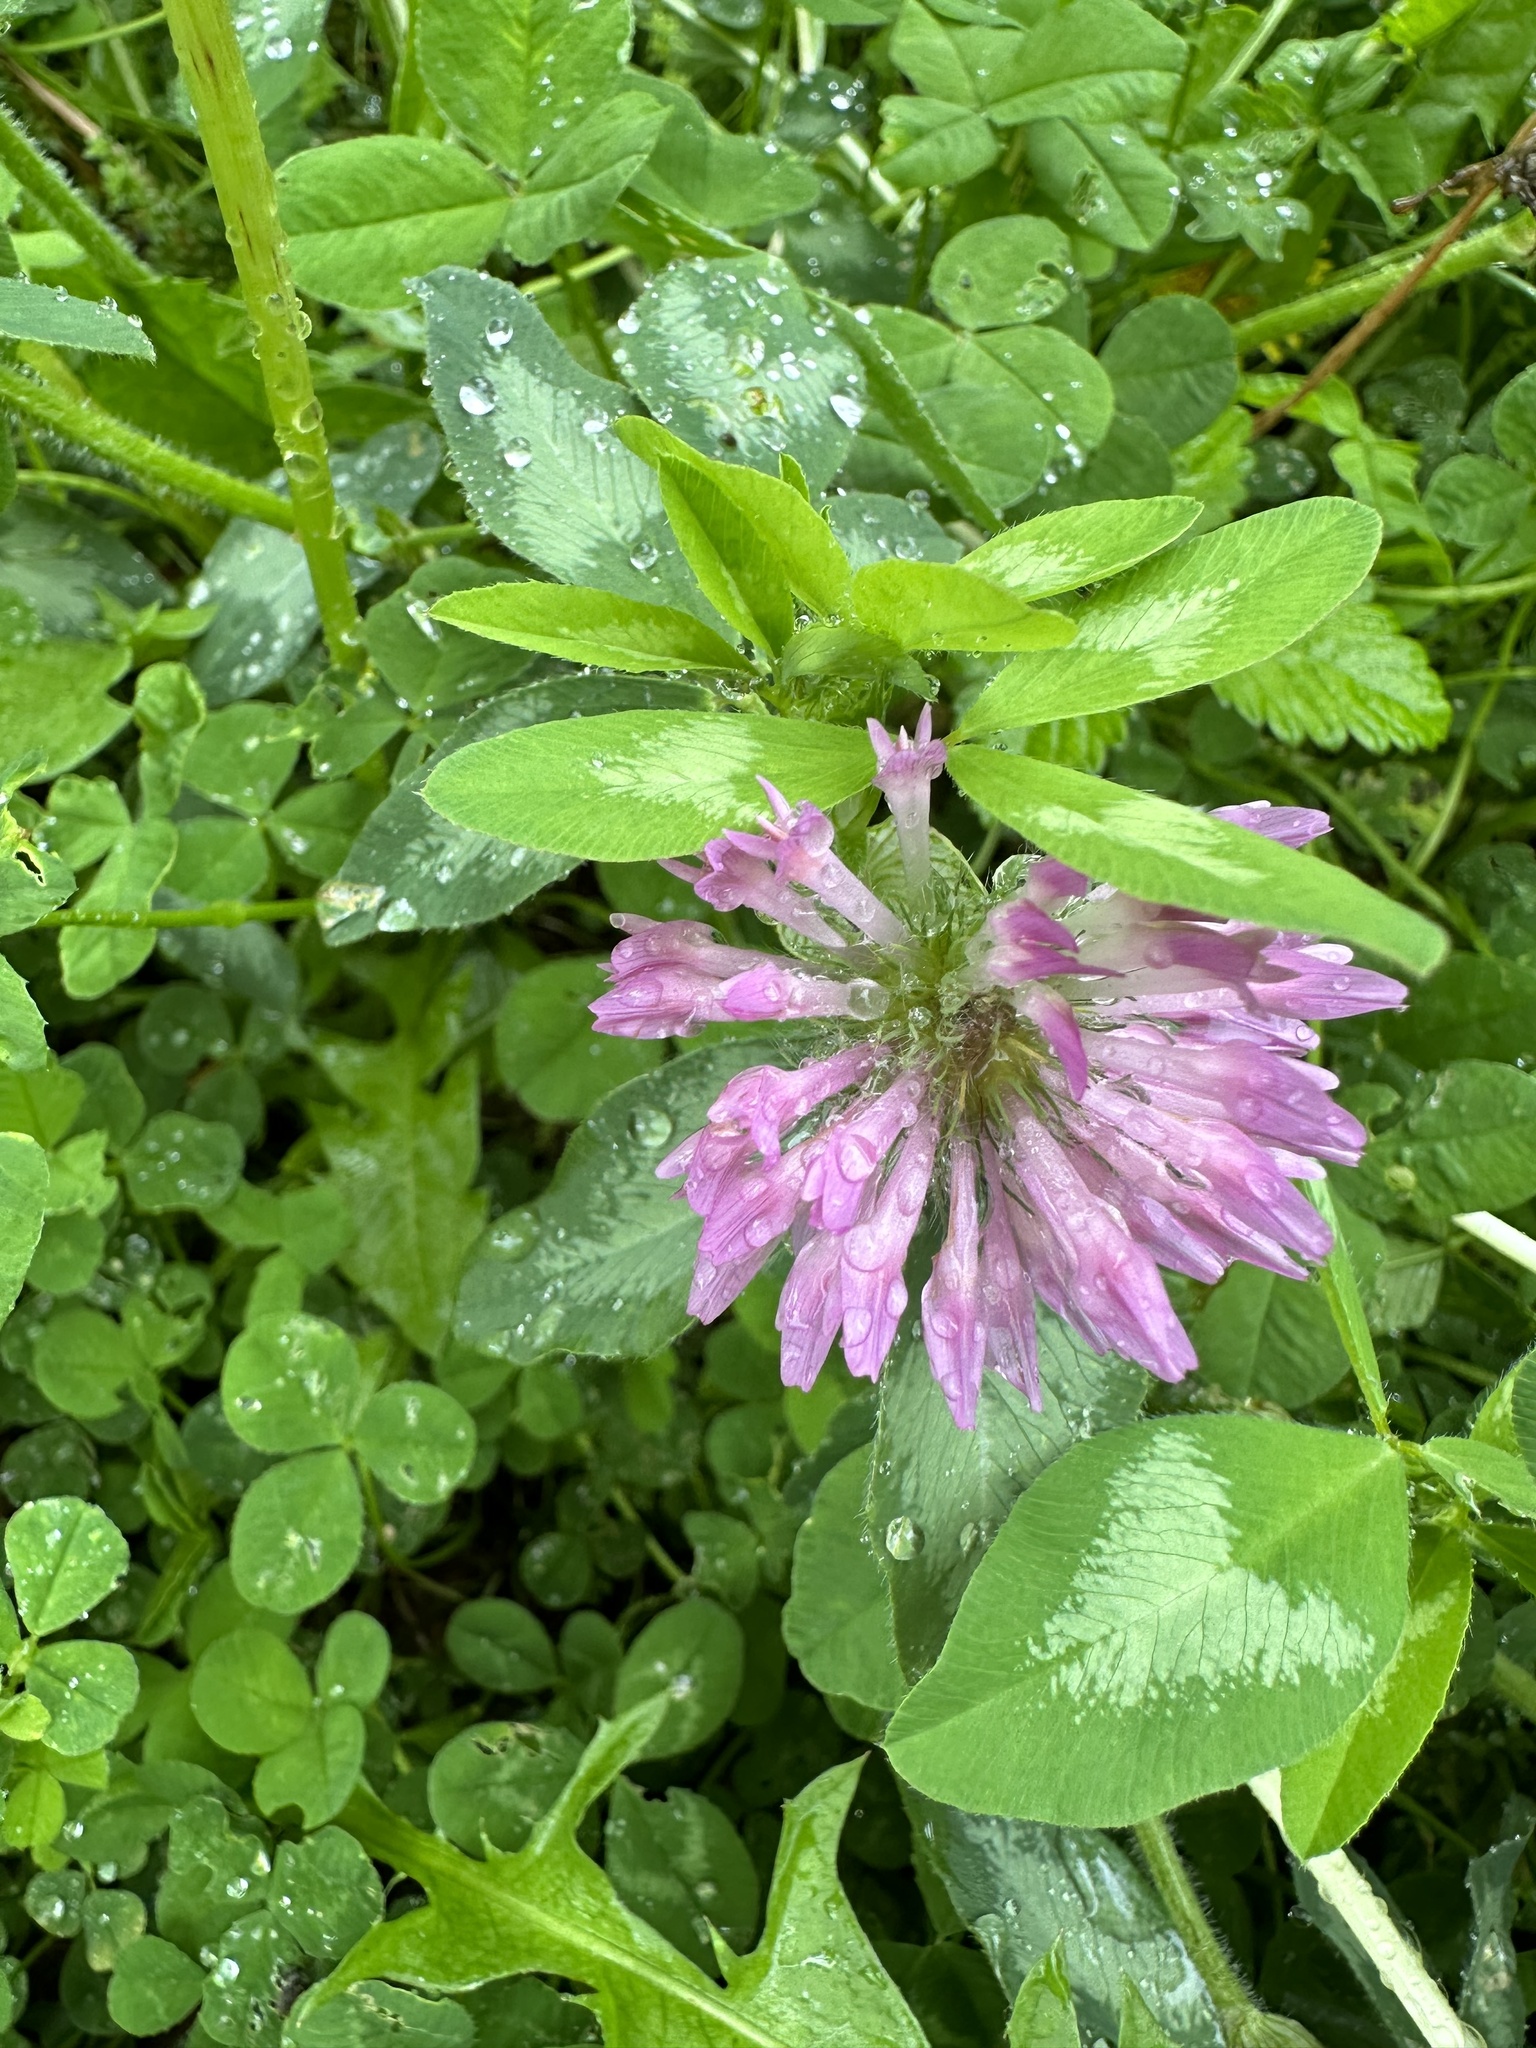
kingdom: Plantae
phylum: Tracheophyta
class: Magnoliopsida
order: Fabales
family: Fabaceae
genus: Trifolium
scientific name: Trifolium pratense
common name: Red clover
